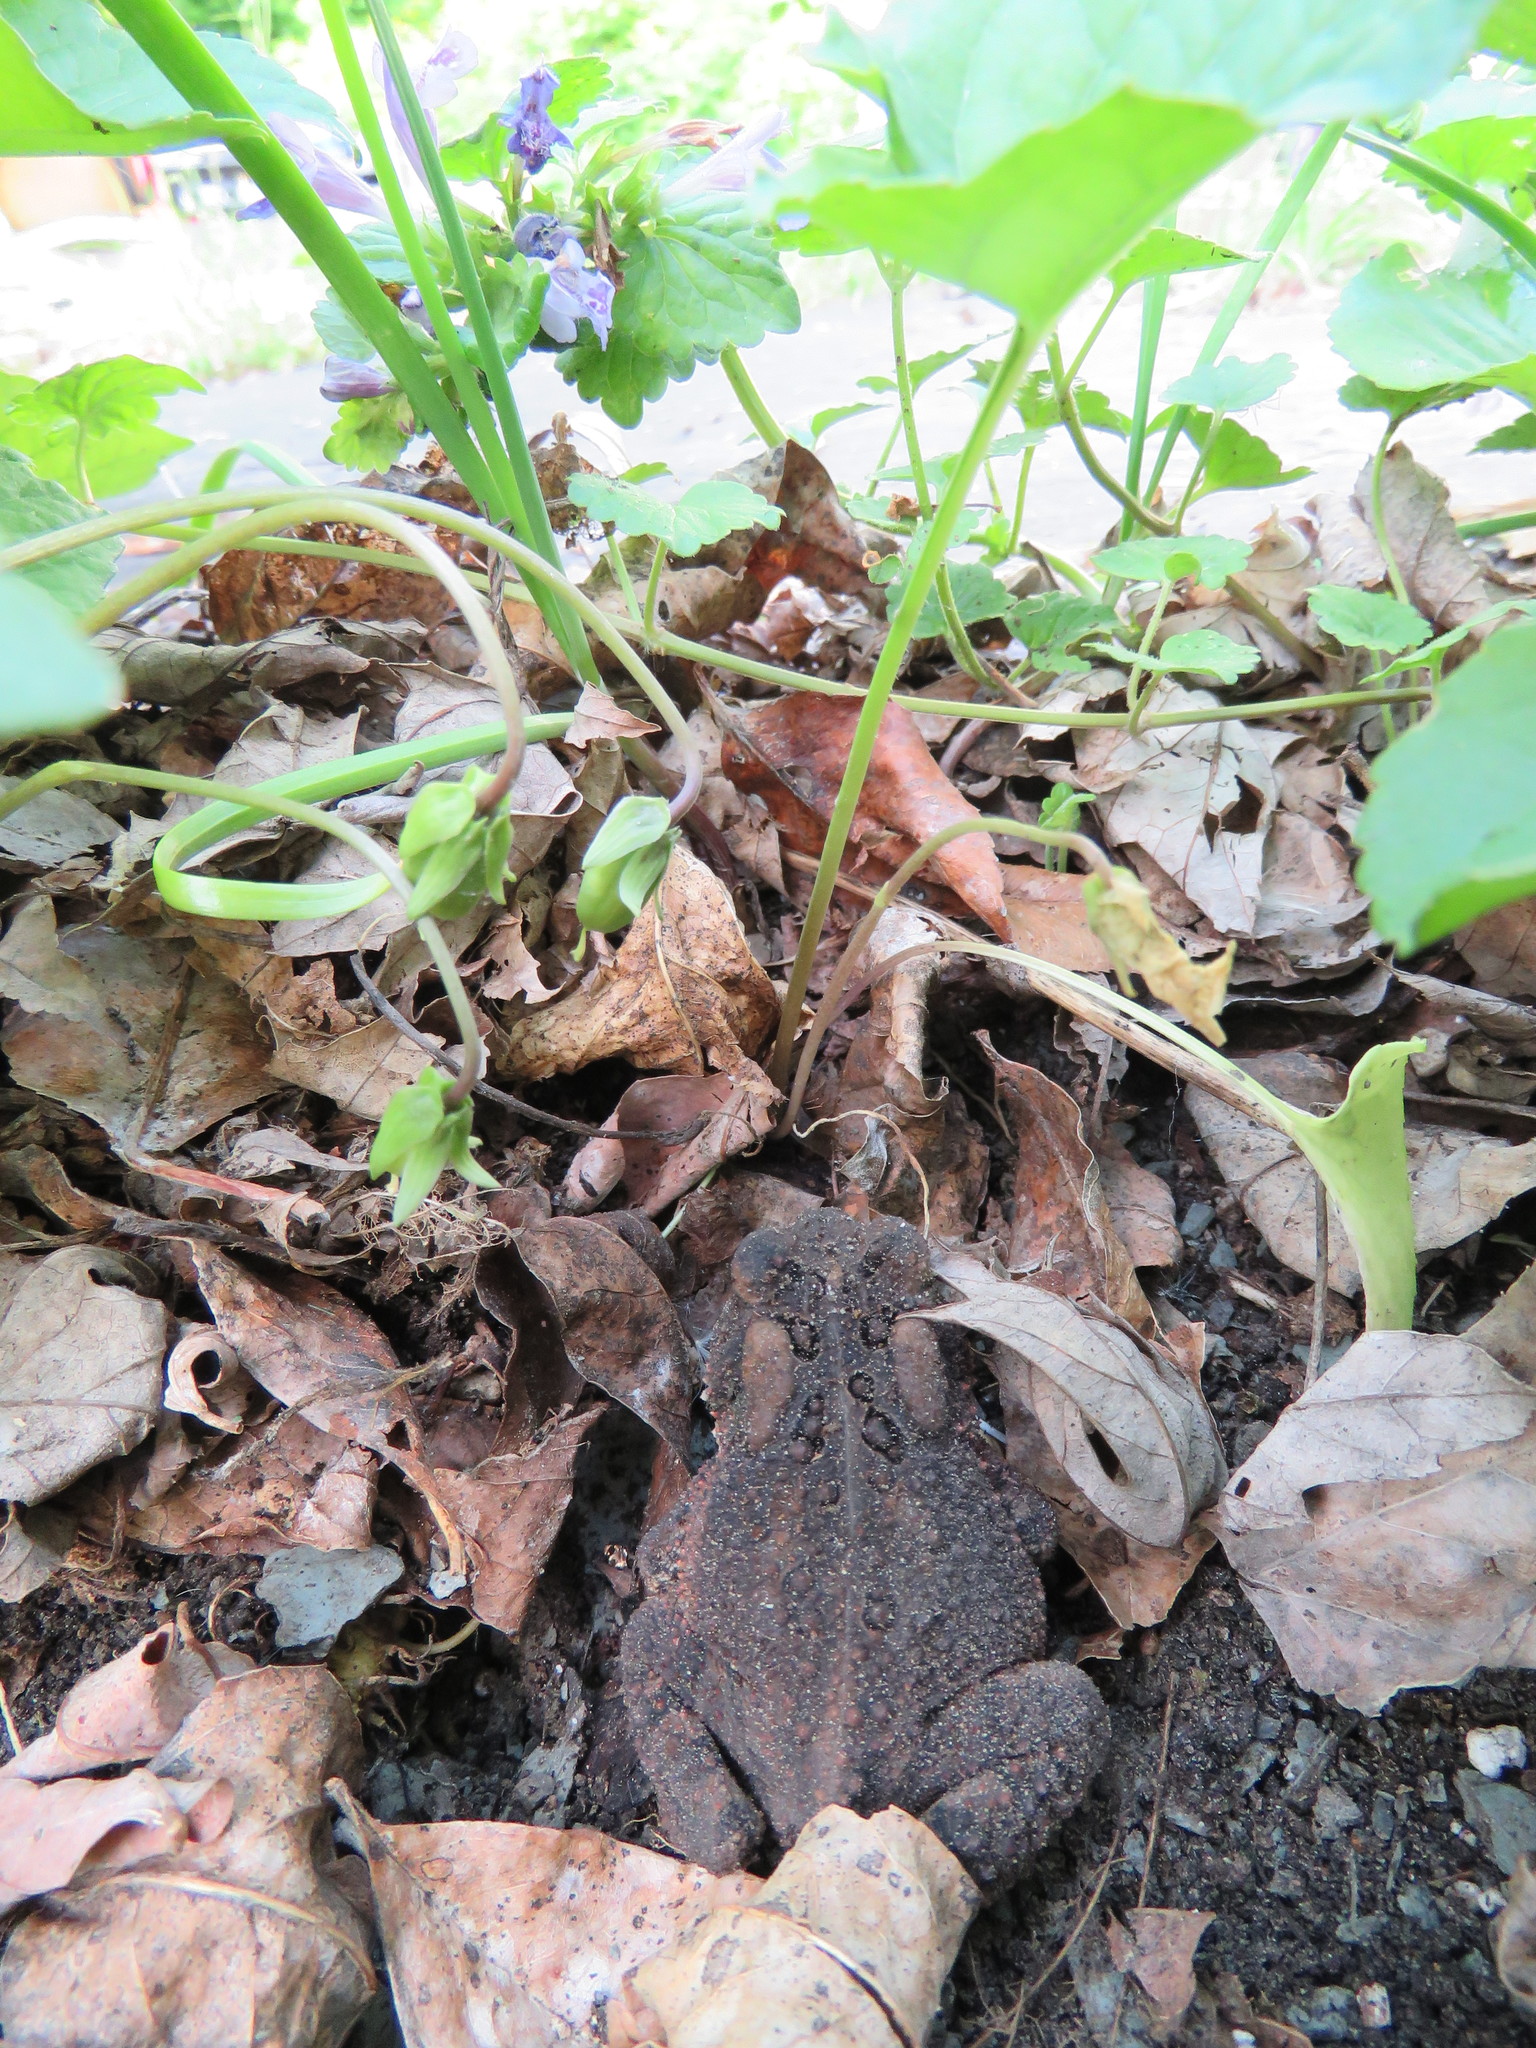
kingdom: Animalia
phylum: Chordata
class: Amphibia
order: Anura
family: Bufonidae
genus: Anaxyrus
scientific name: Anaxyrus americanus
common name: American toad
